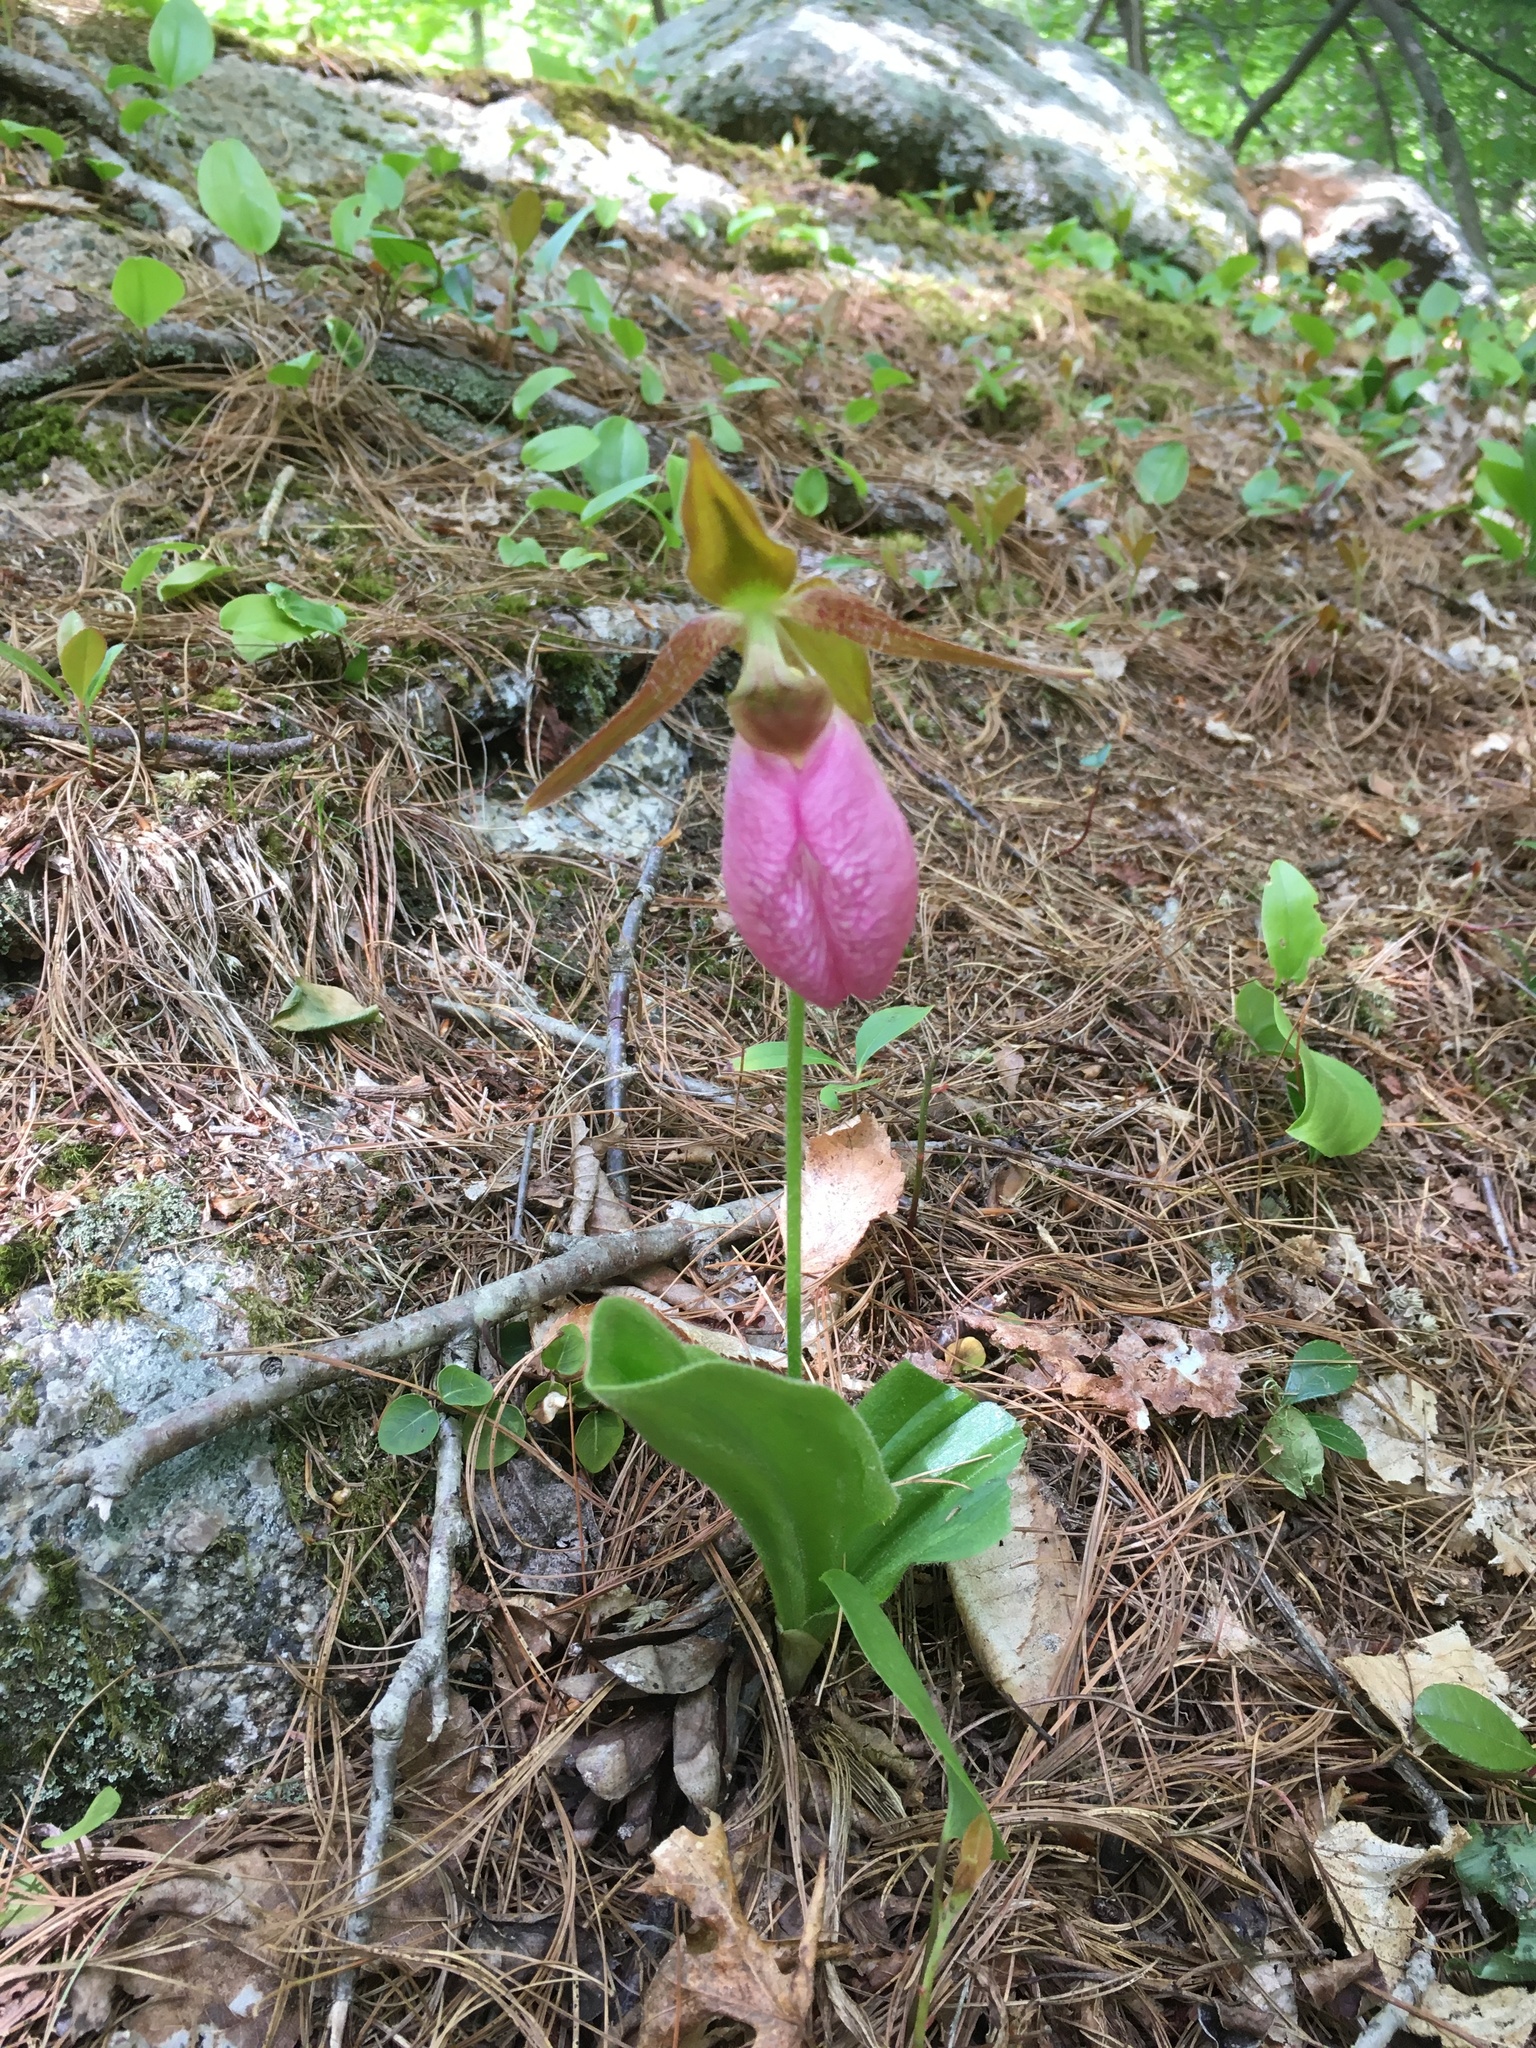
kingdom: Plantae
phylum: Tracheophyta
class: Liliopsida
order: Asparagales
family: Orchidaceae
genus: Cypripedium
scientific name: Cypripedium acaule
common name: Pink lady's-slipper
